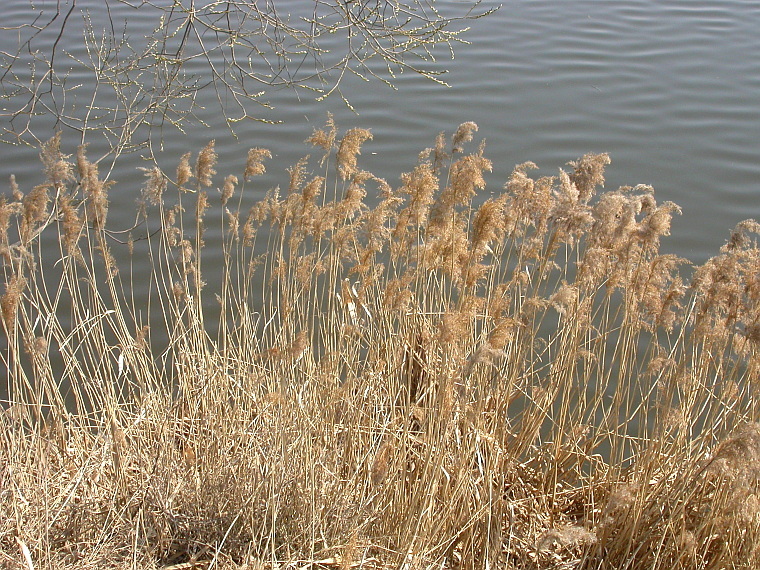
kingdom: Plantae
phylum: Tracheophyta
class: Liliopsida
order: Poales
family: Poaceae
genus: Phragmites
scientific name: Phragmites australis
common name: Common reed
